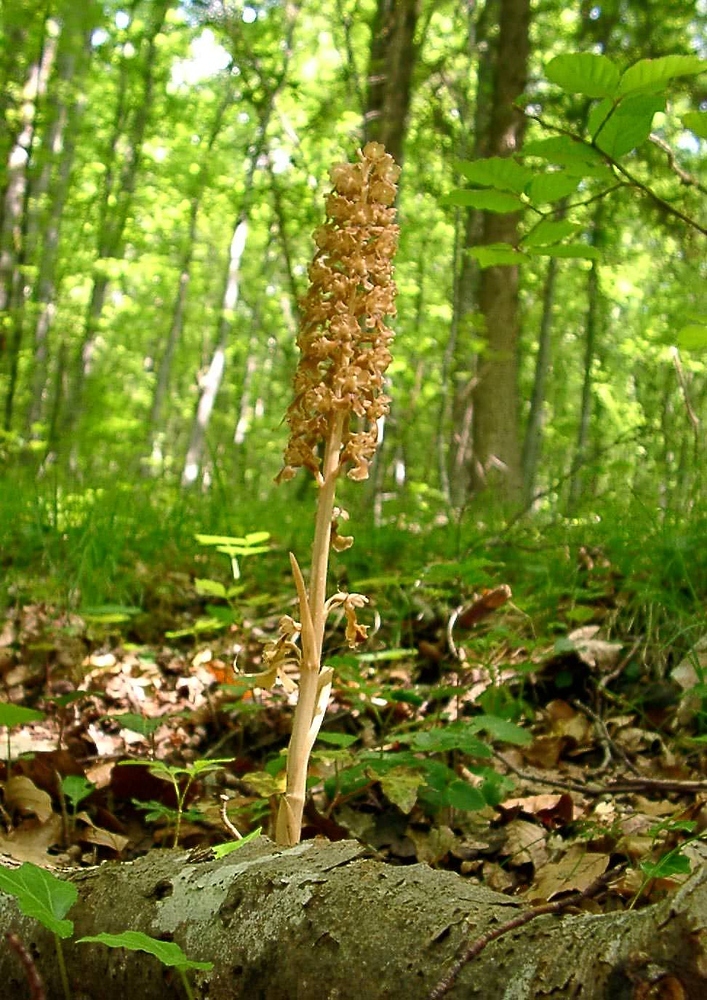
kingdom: Plantae
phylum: Tracheophyta
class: Liliopsida
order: Asparagales
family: Orchidaceae
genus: Neottia
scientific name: Neottia nidus-avis
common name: Bird's-nest orchid
